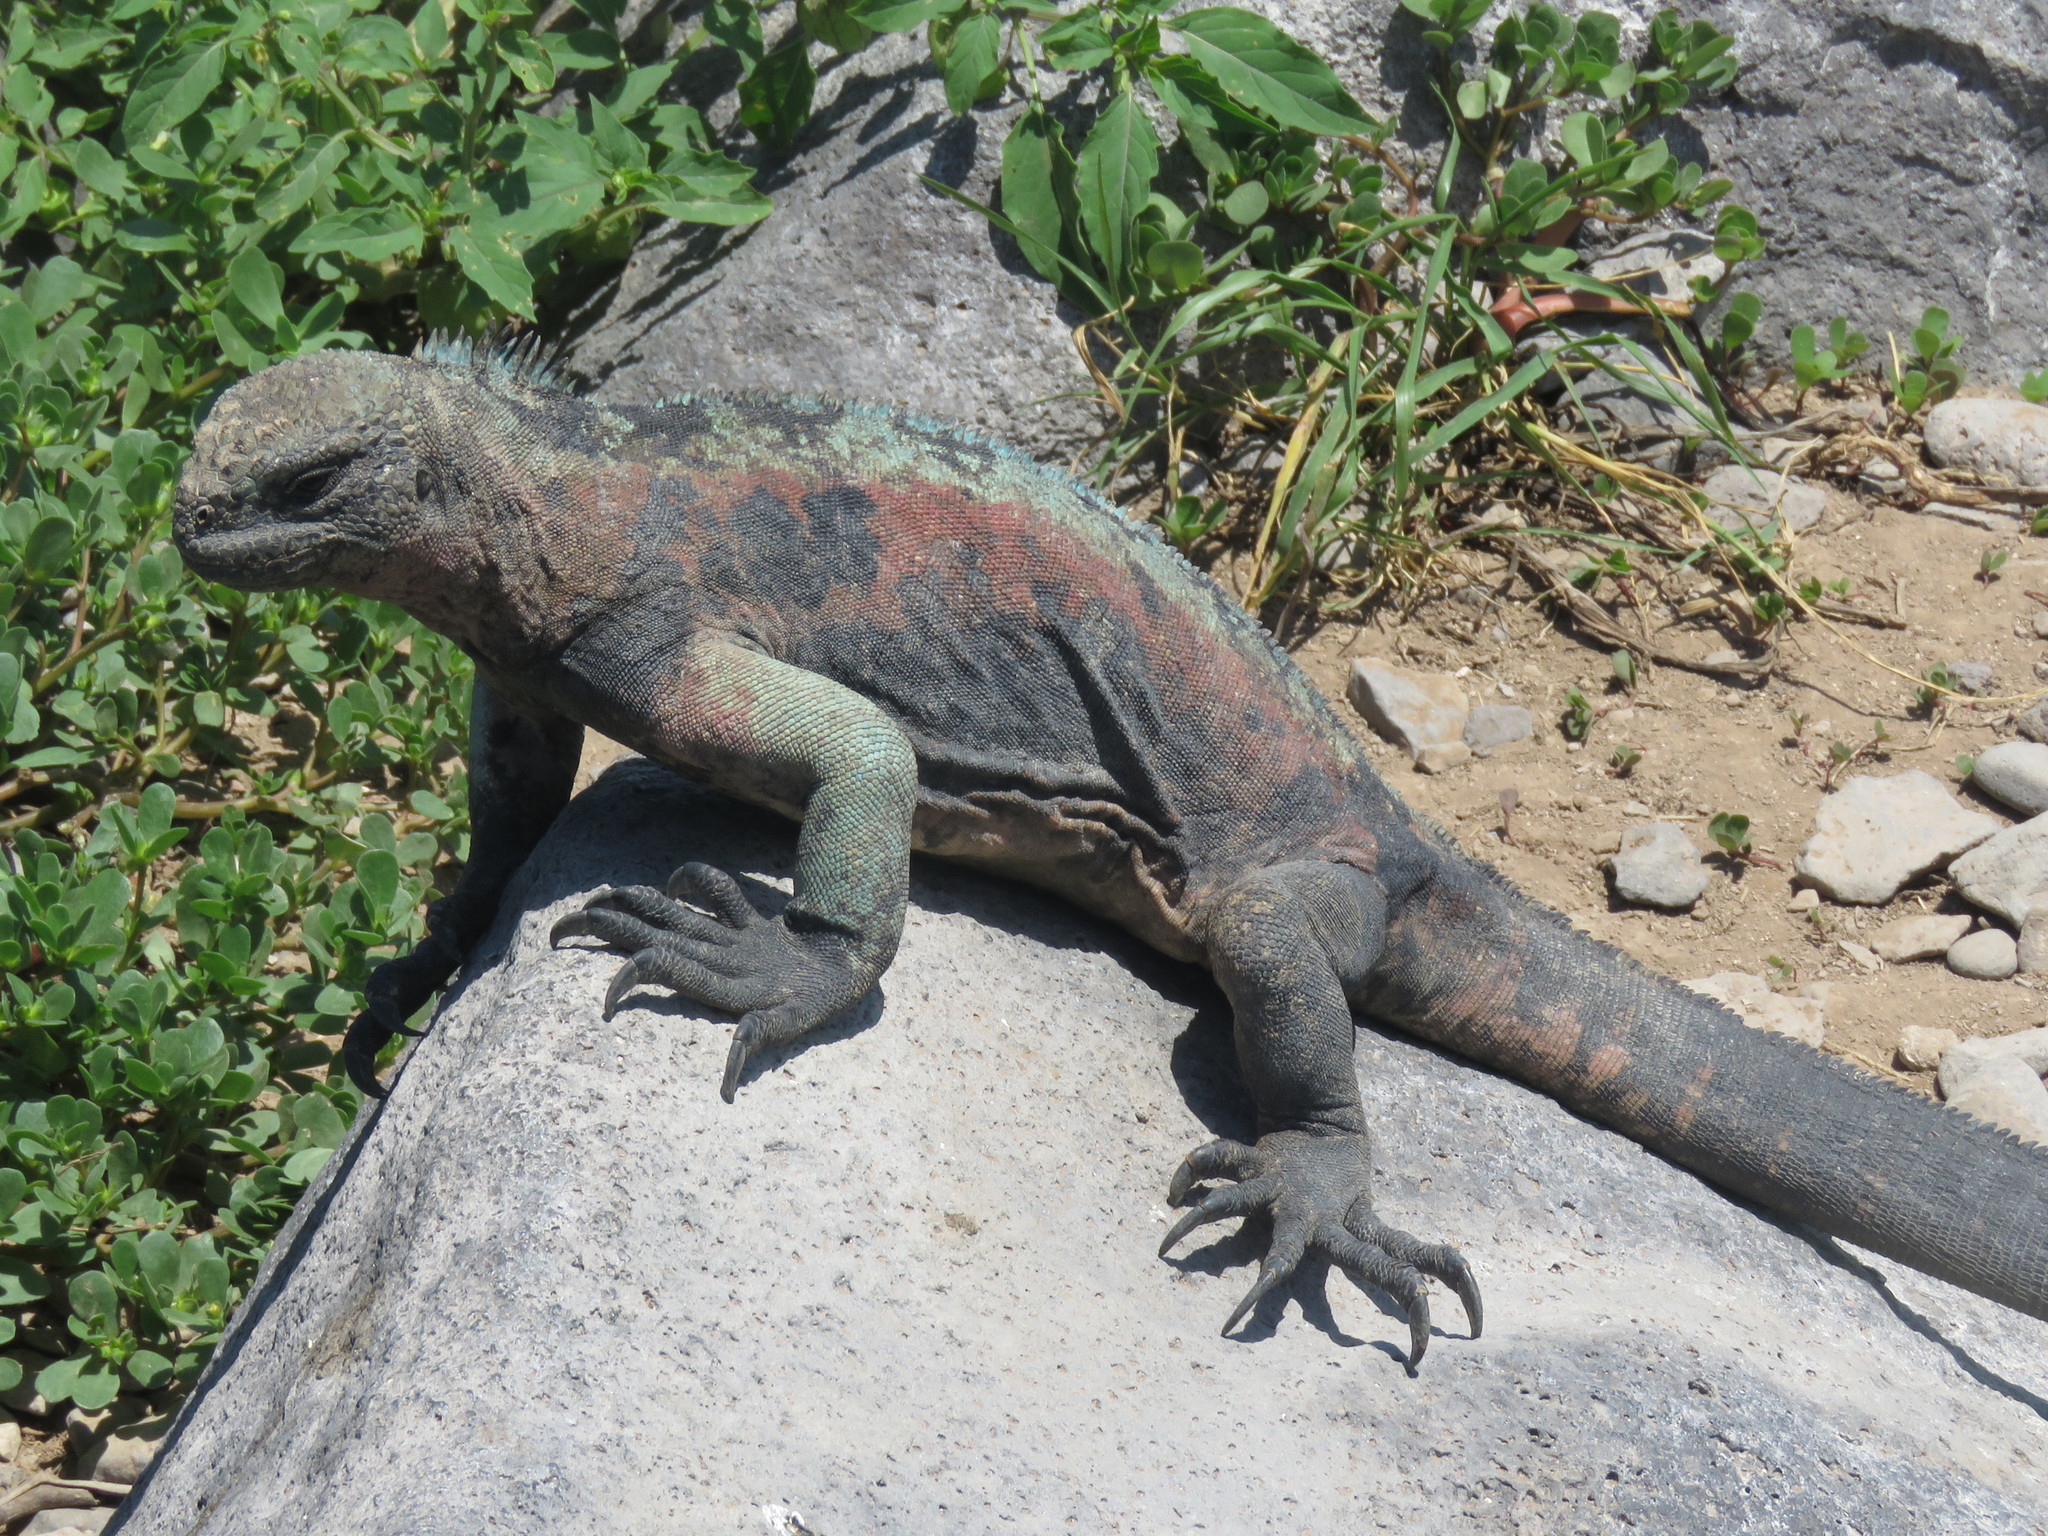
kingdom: Animalia
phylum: Chordata
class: Squamata
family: Iguanidae
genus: Amblyrhynchus
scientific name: Amblyrhynchus cristatus
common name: Marine iguana
